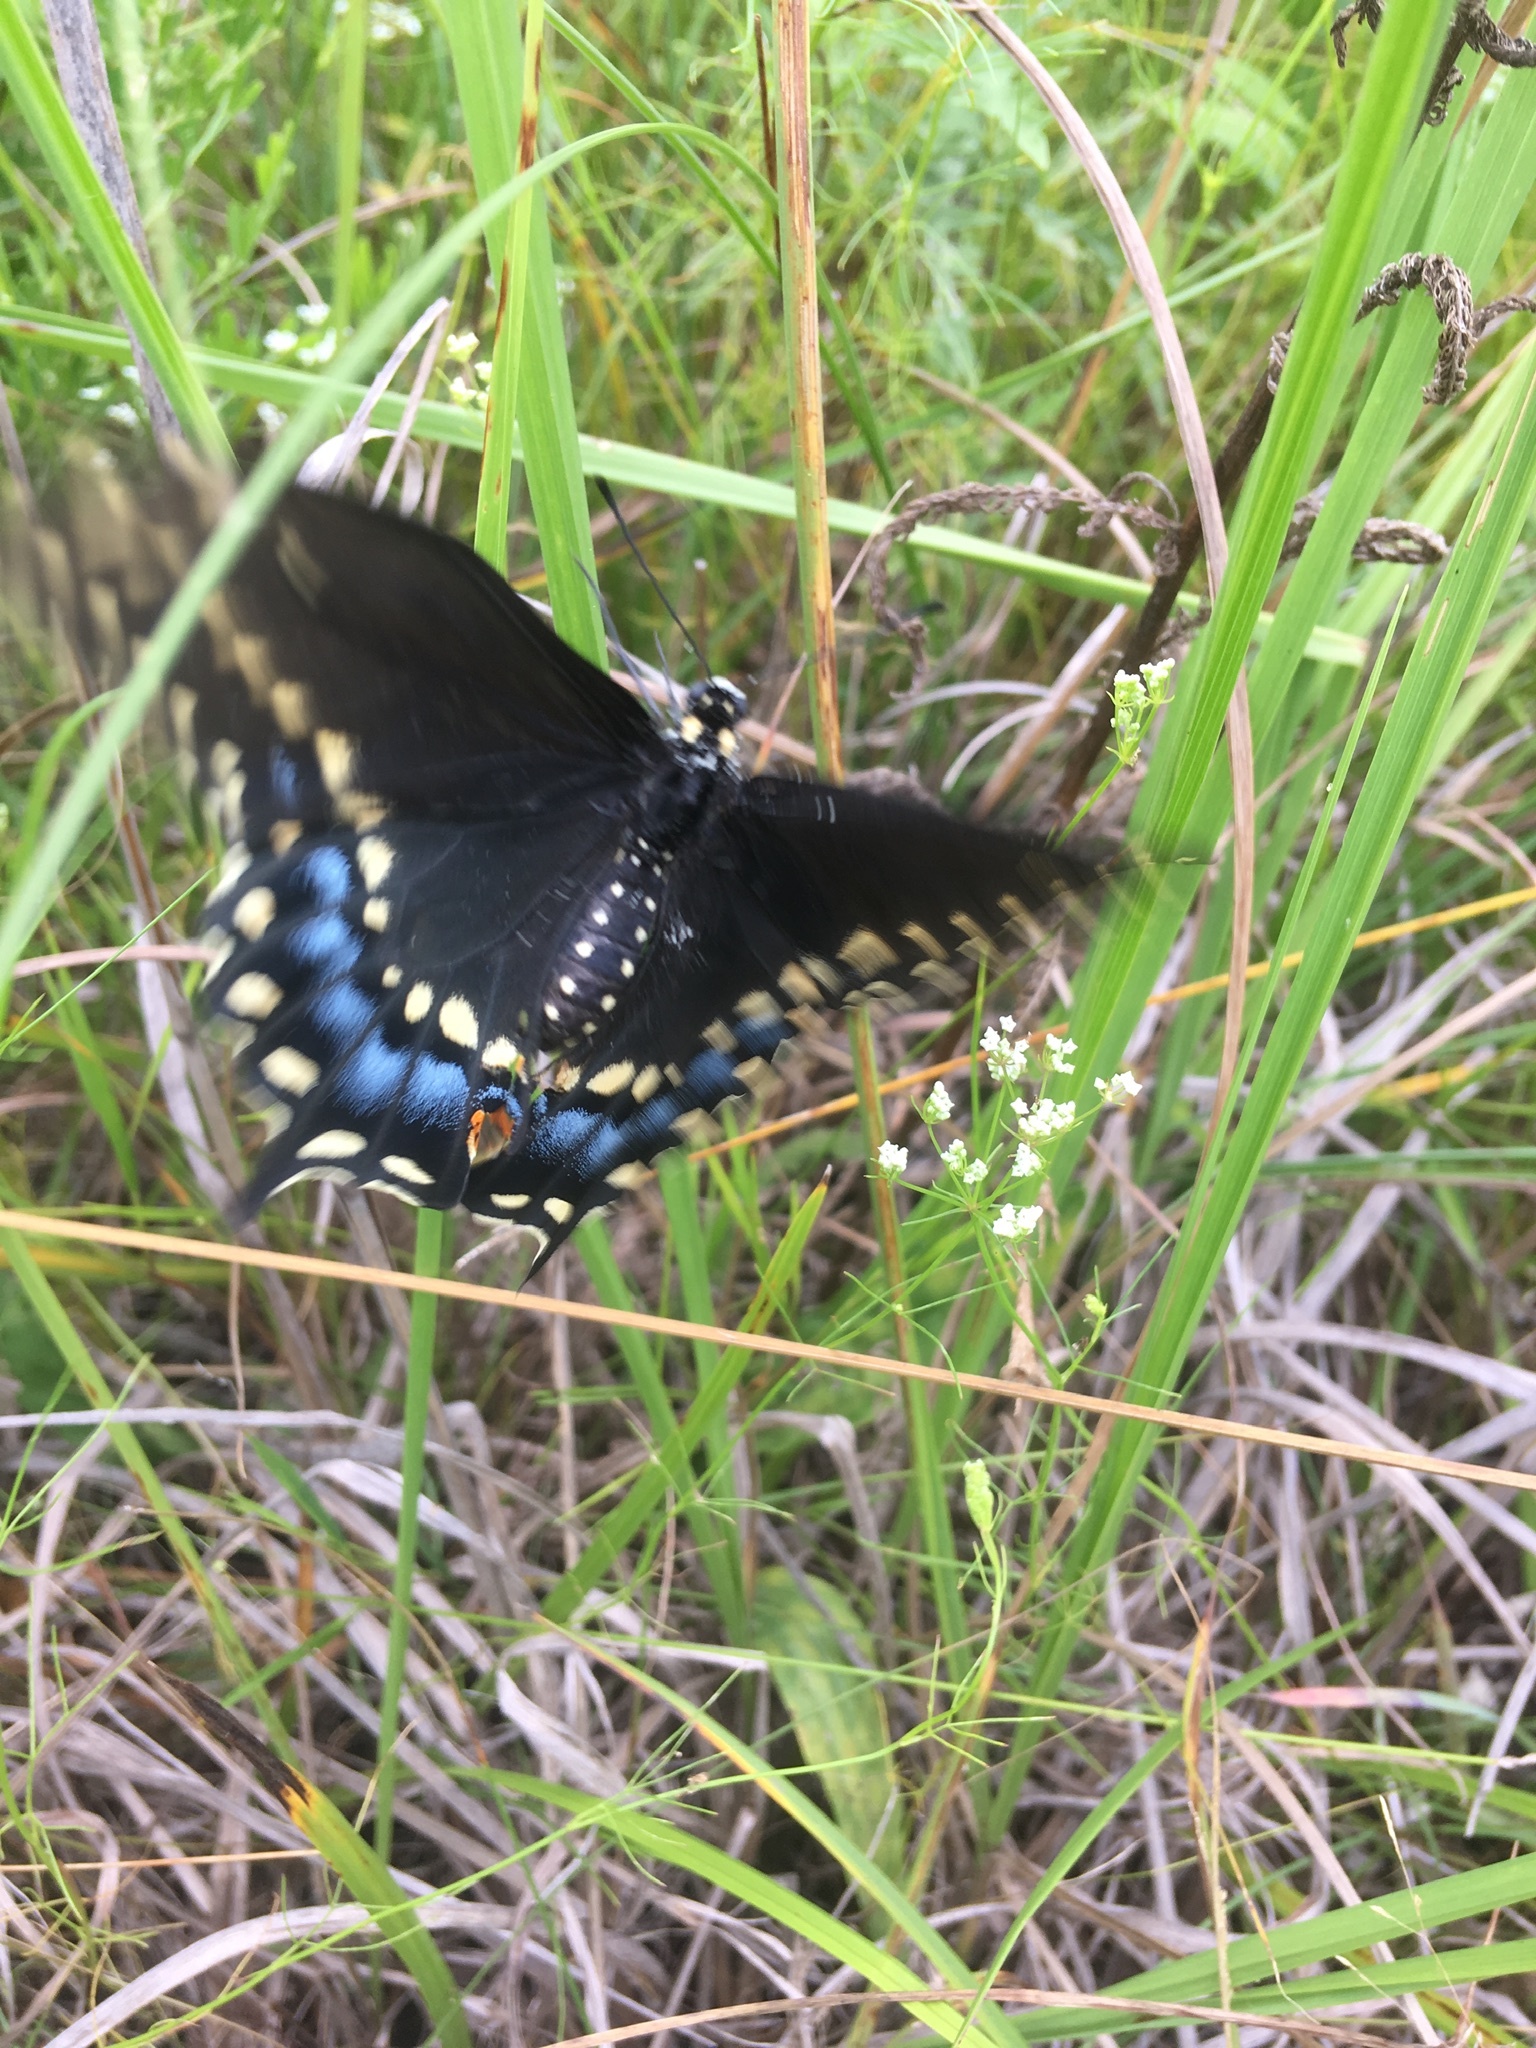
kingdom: Animalia
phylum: Arthropoda
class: Insecta
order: Lepidoptera
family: Papilionidae
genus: Papilio
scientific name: Papilio polyxenes
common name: Black swallowtail
